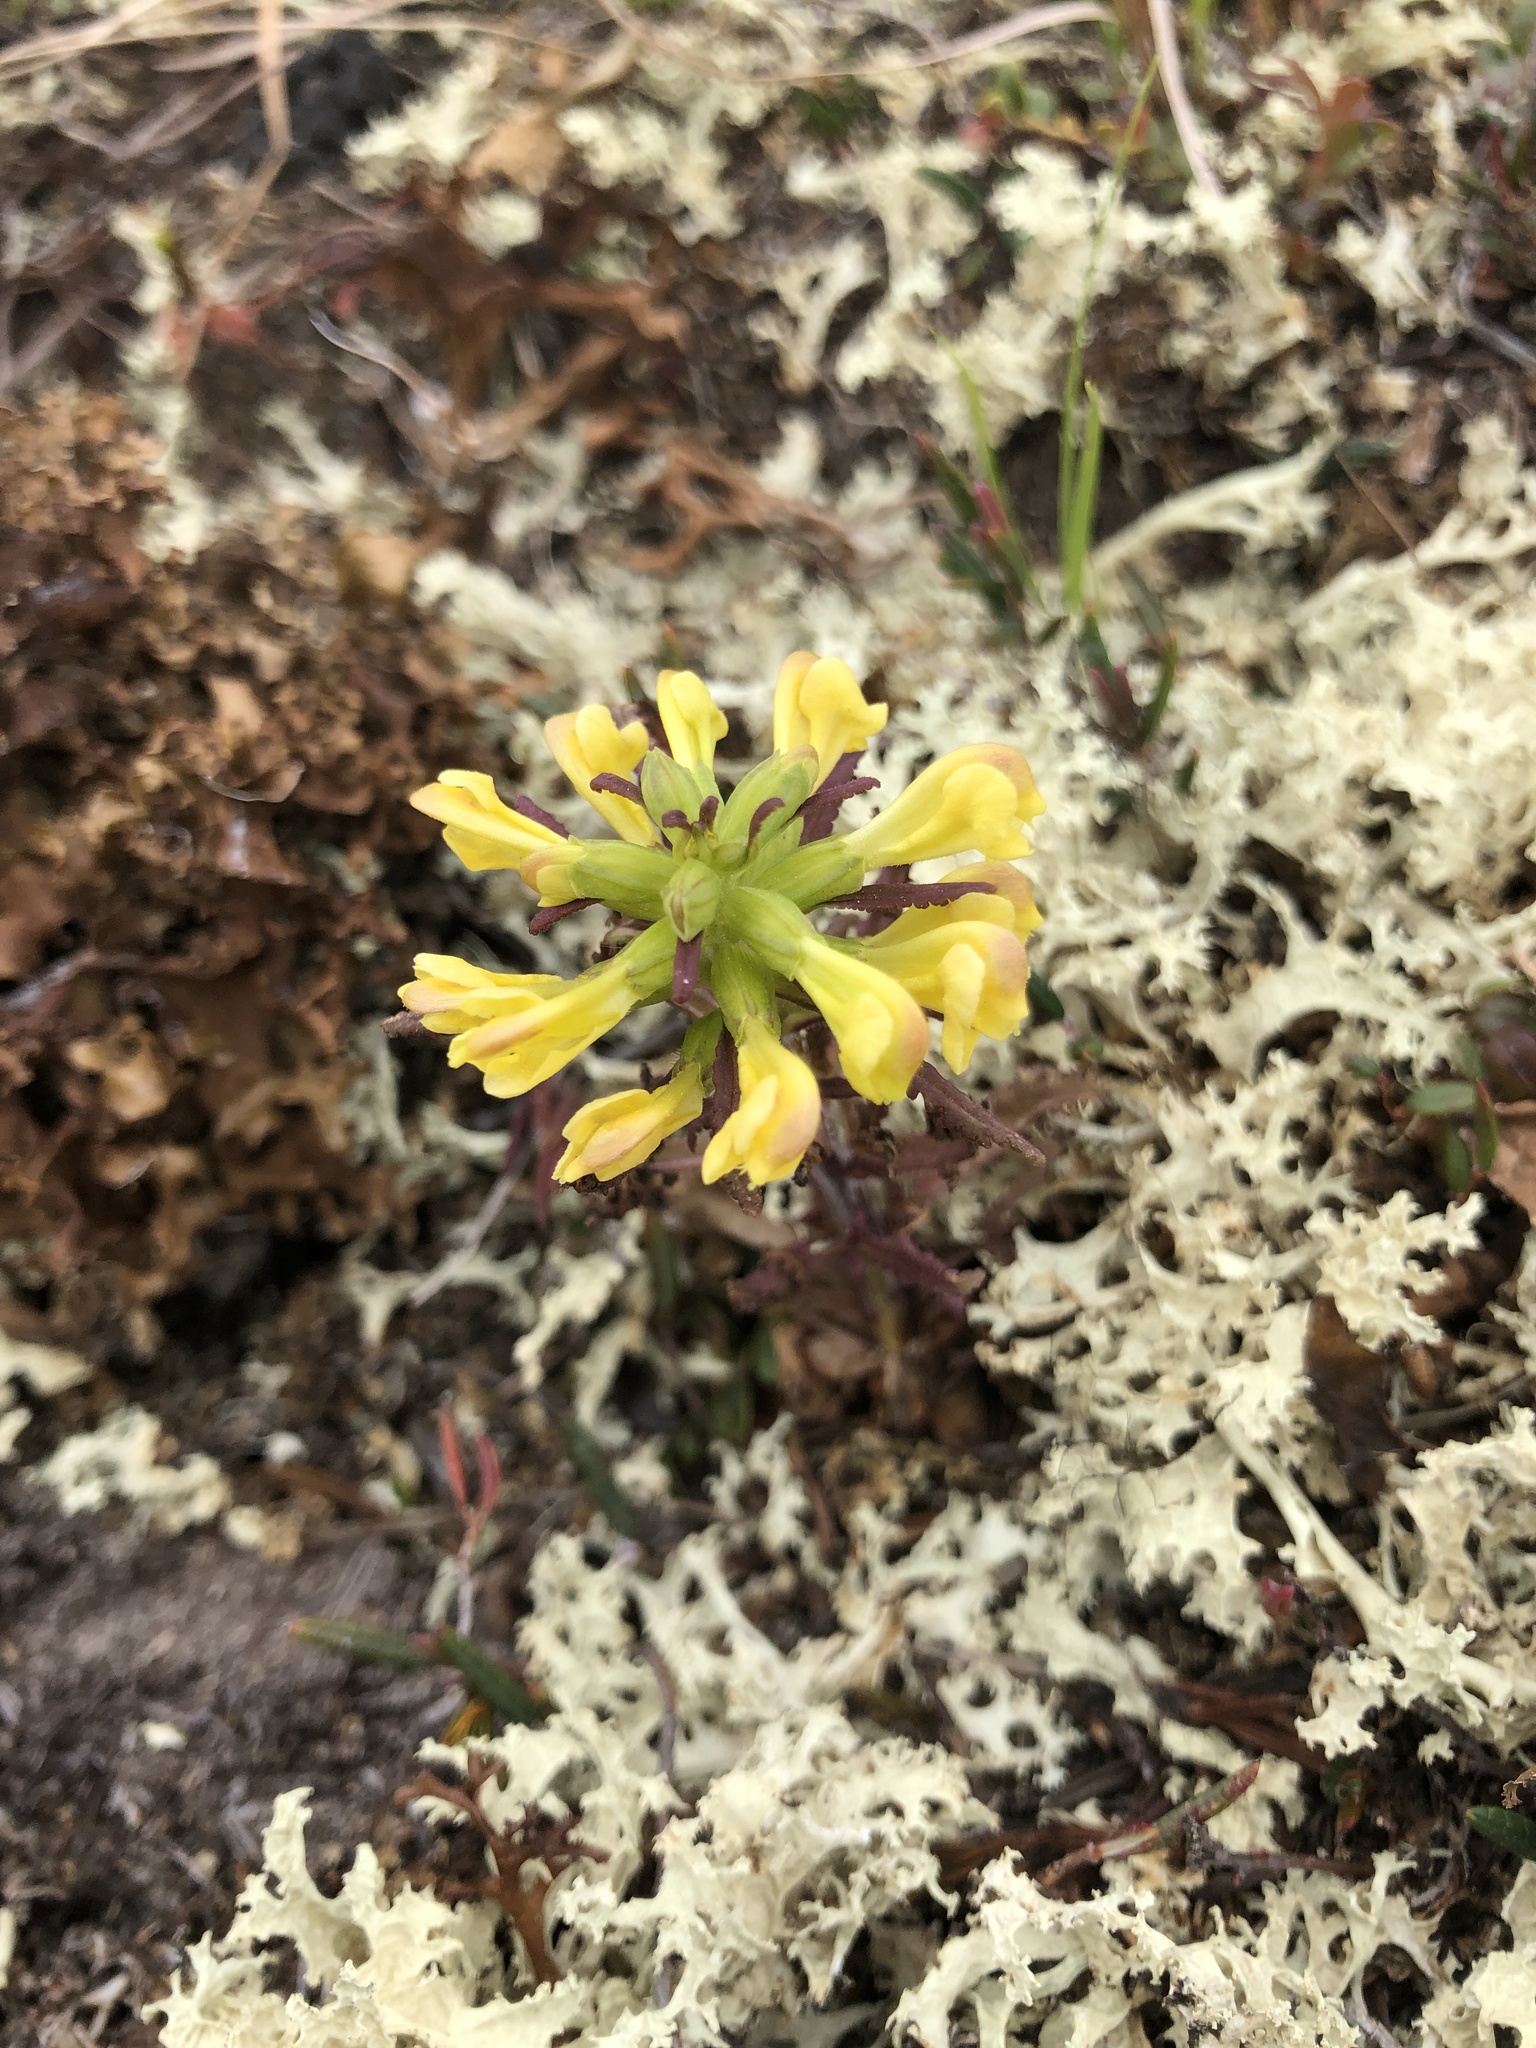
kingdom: Plantae
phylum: Tracheophyta
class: Magnoliopsida
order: Lamiales
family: Orobanchaceae
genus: Pedicularis
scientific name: Pedicularis labradorica
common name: Labrador lousewort
